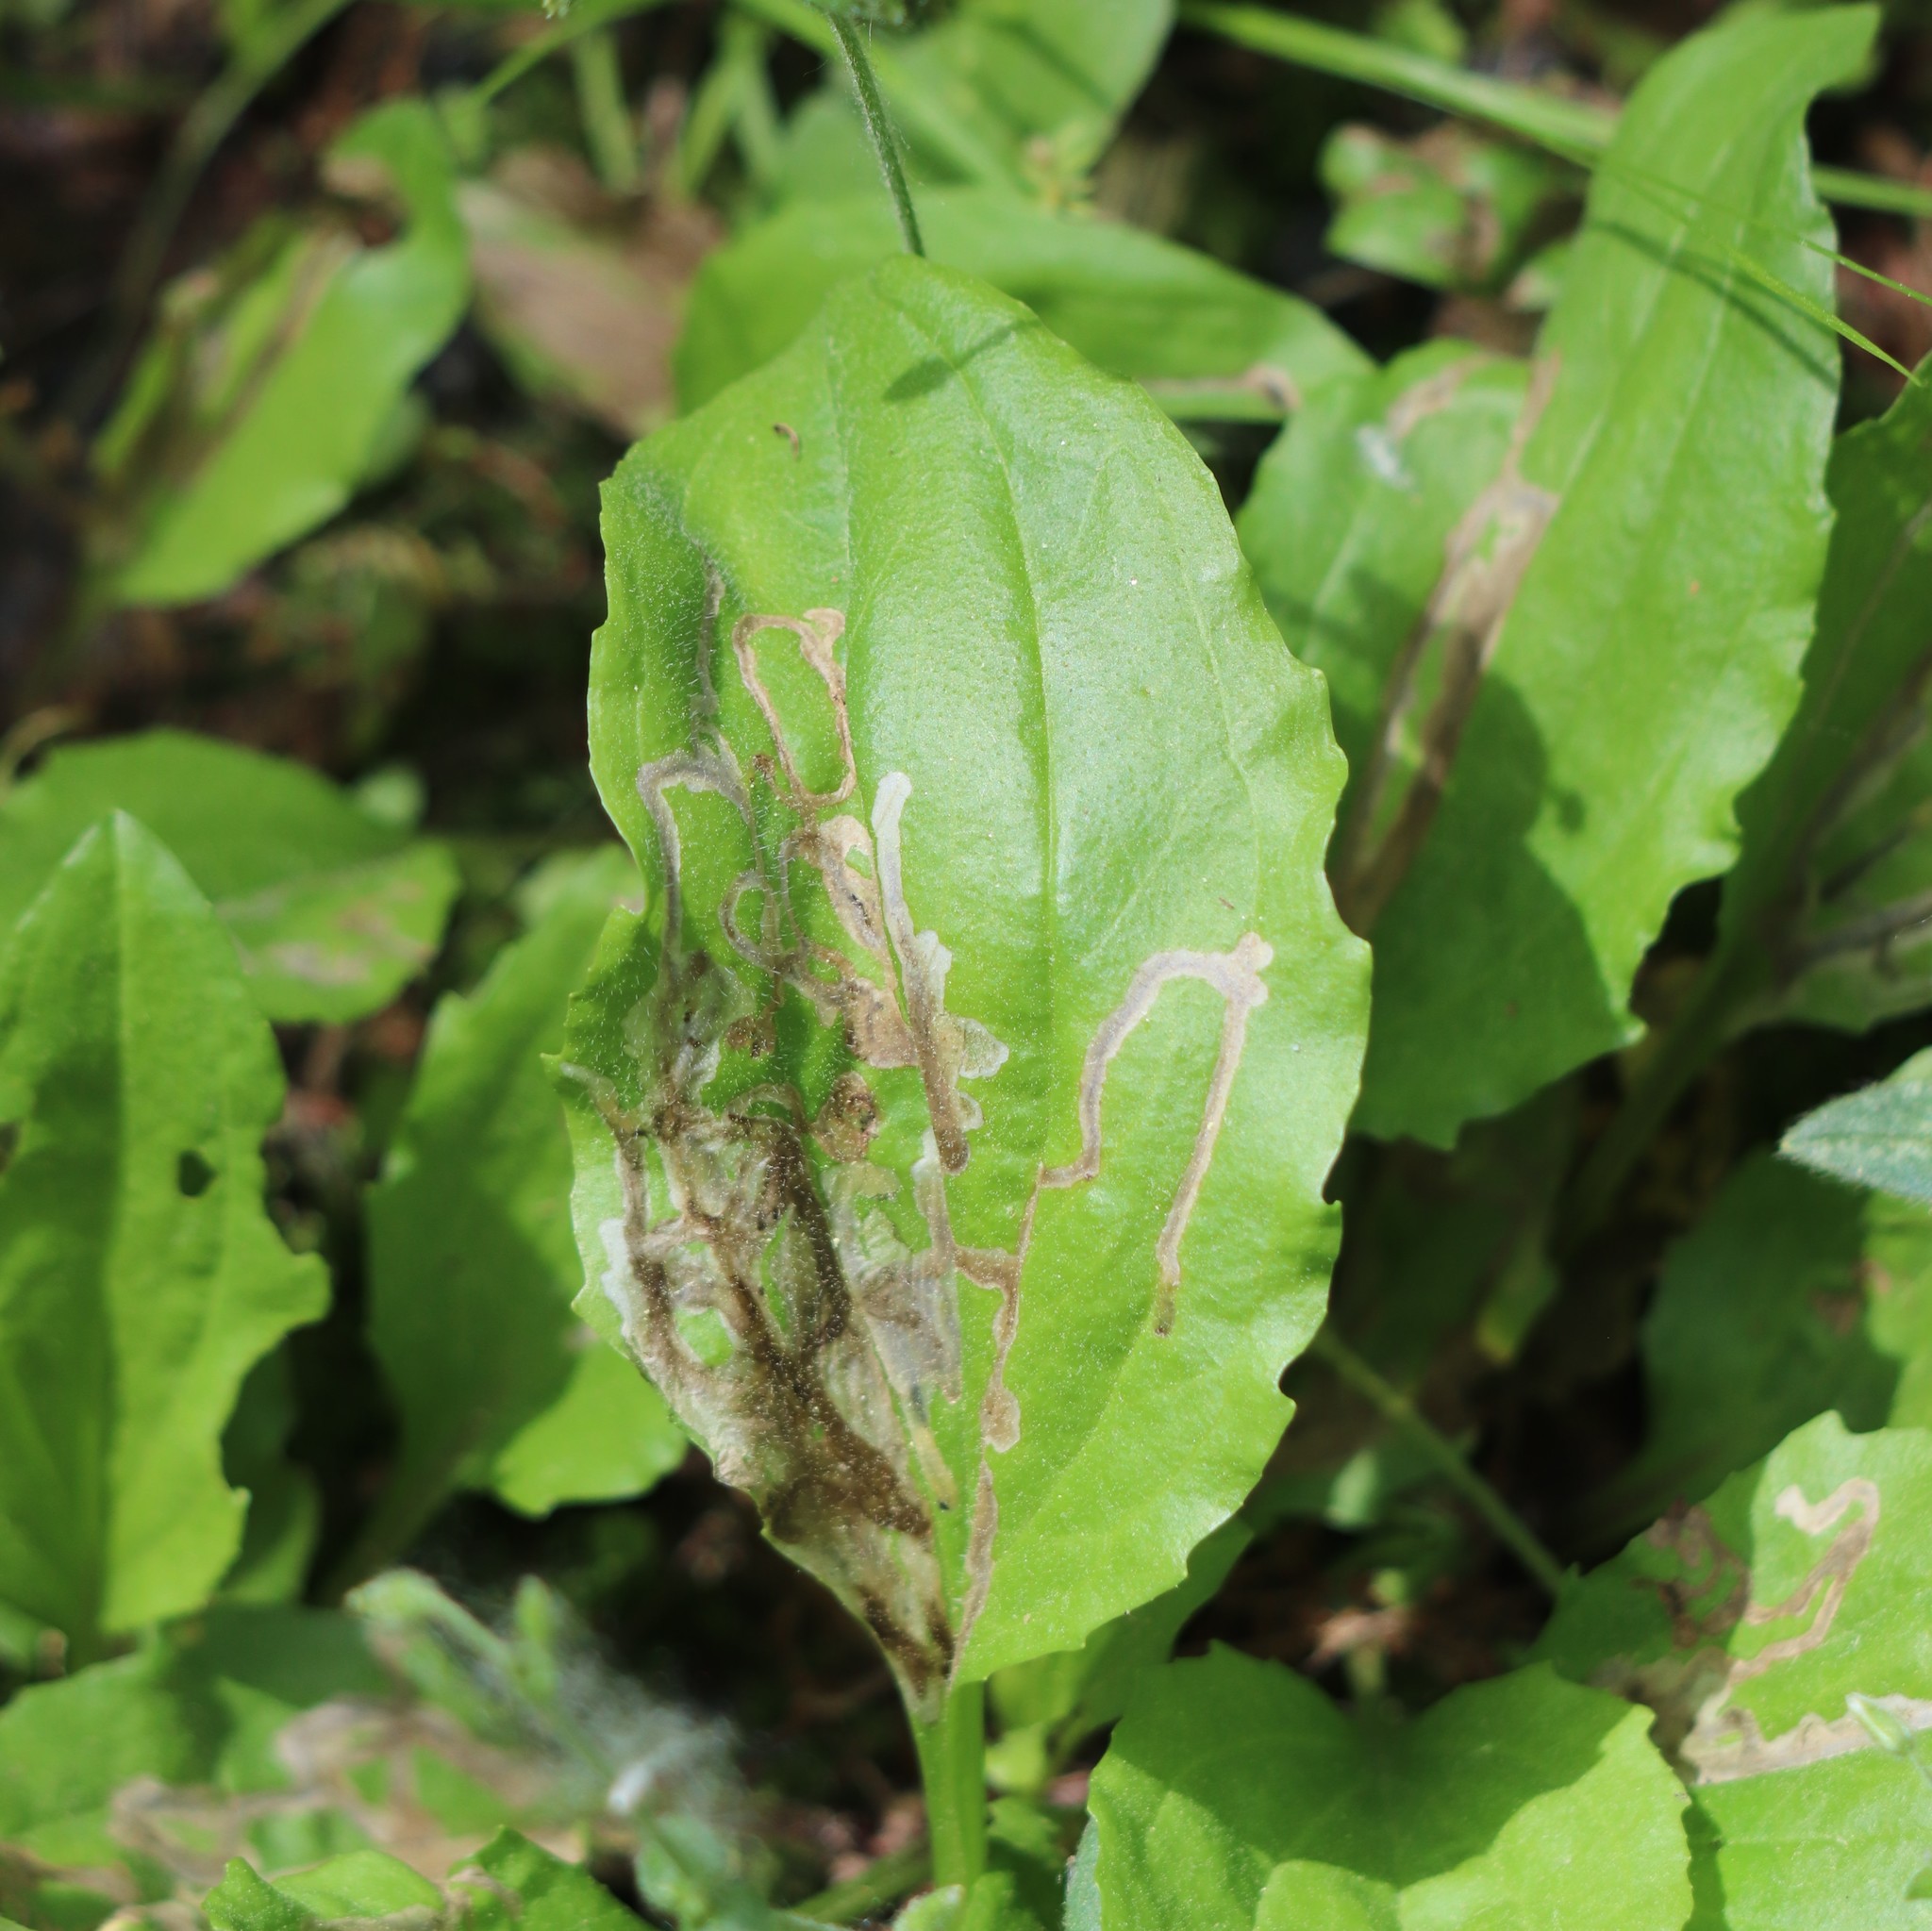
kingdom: Animalia
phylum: Arthropoda
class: Insecta
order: Coleoptera
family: Chrysomelidae
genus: Dibolia
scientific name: Dibolia borealis
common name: Northern plantain flea beetle
